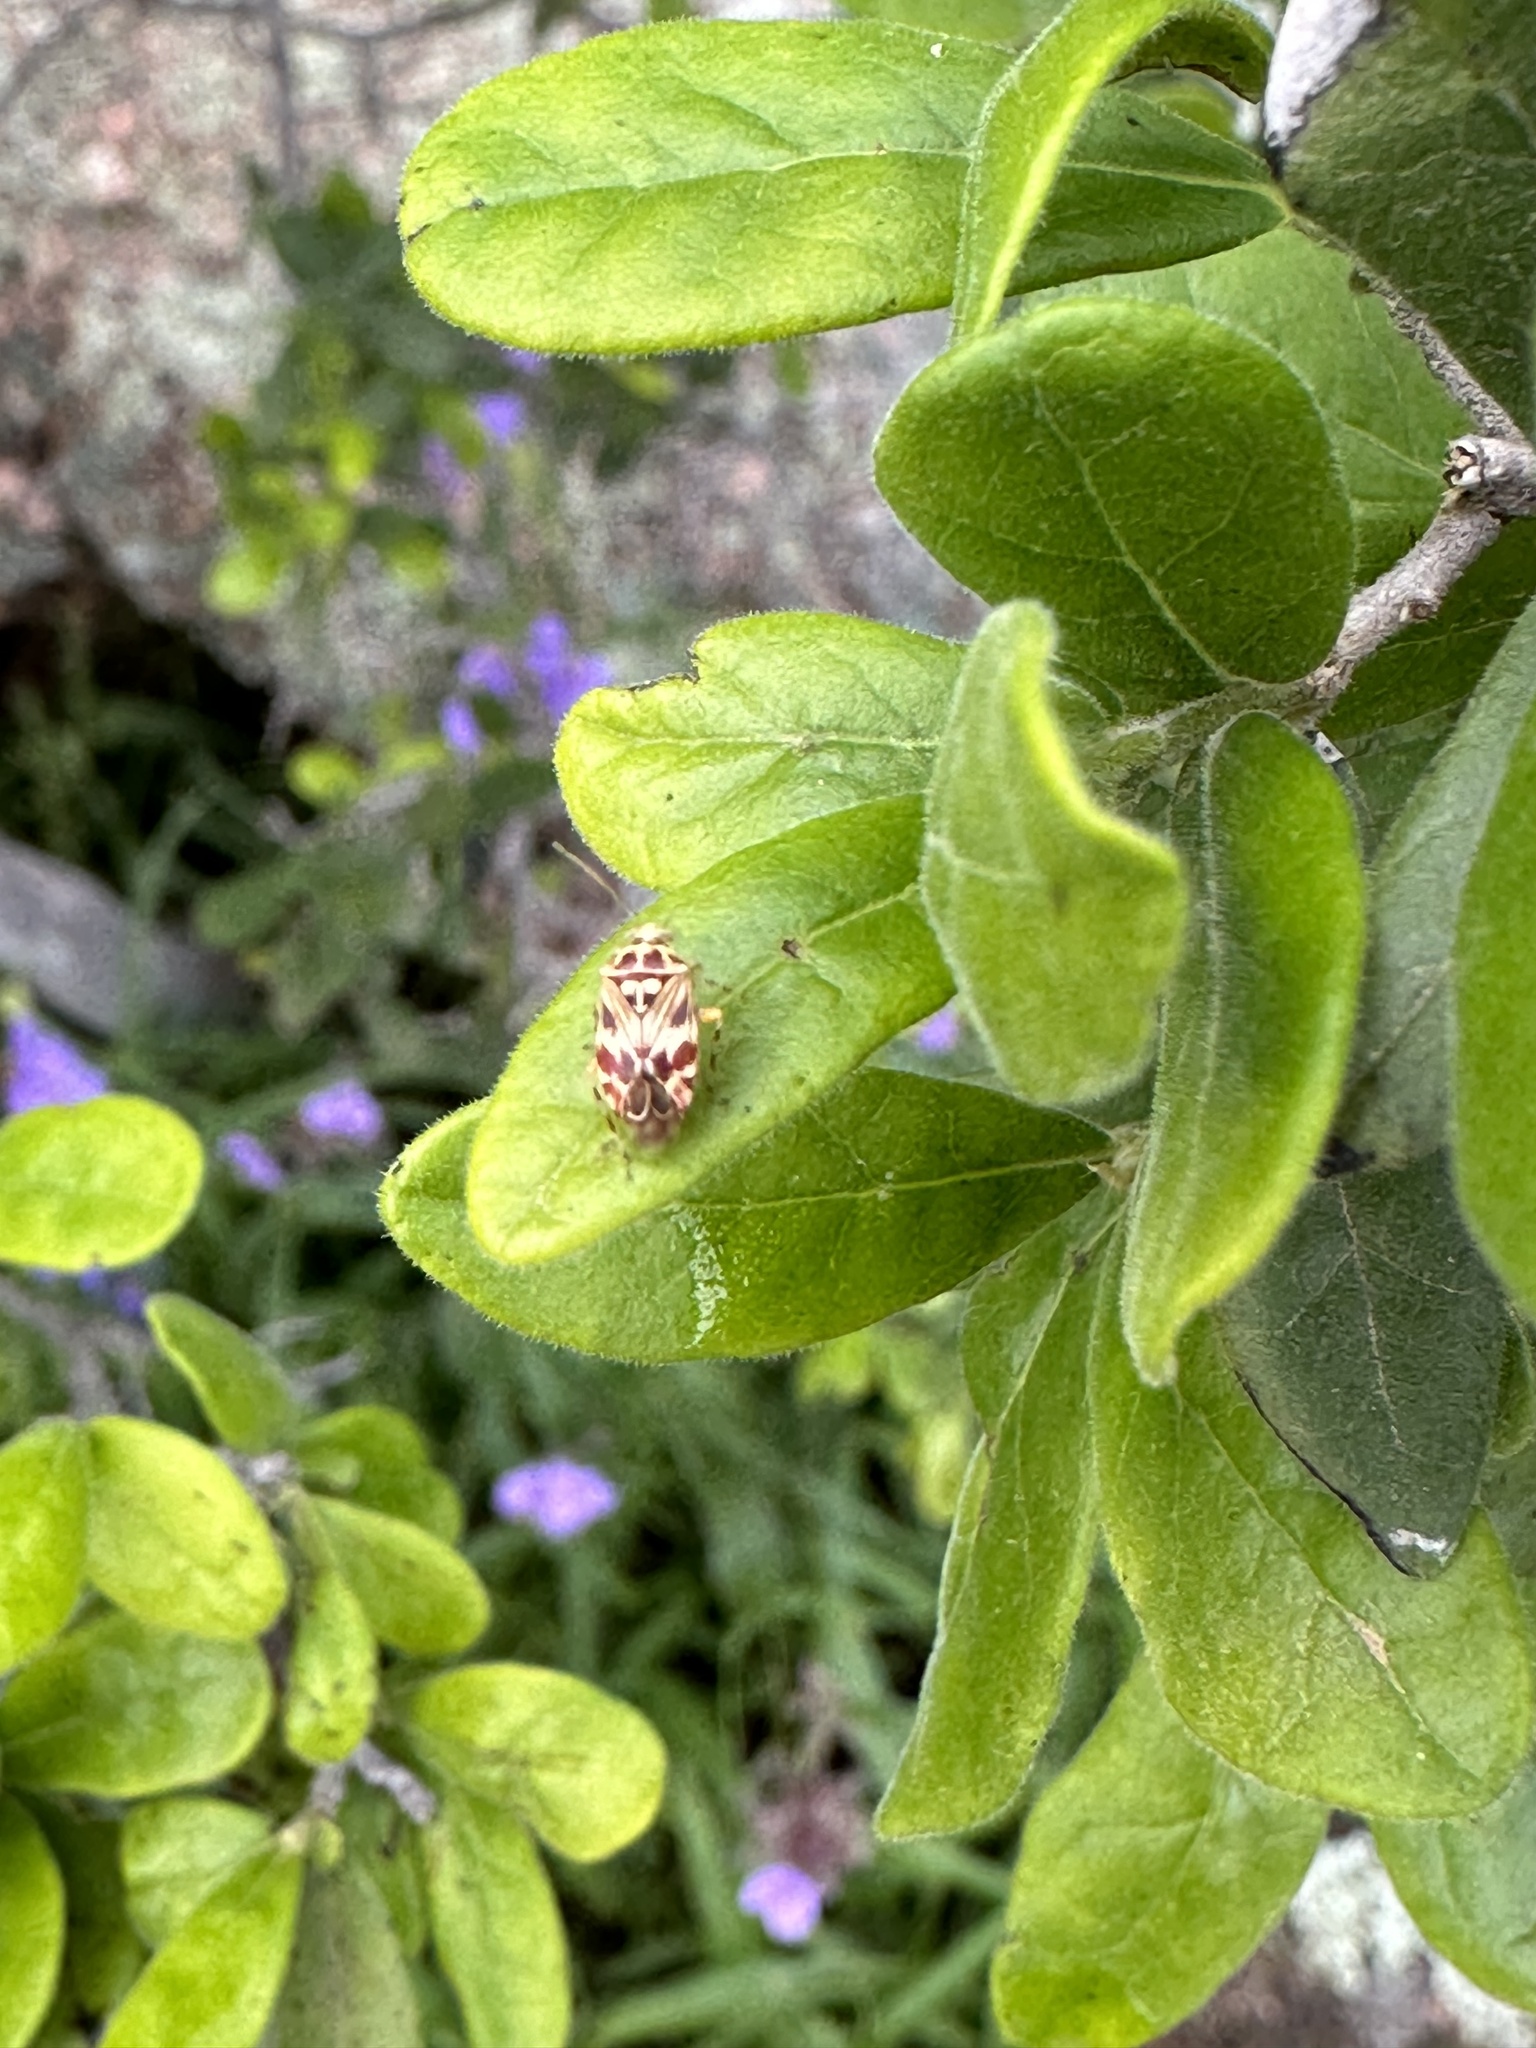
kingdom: Animalia
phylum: Arthropoda
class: Insecta
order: Hemiptera
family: Miridae
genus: Tropidosteptes
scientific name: Tropidosteptes quercicola
